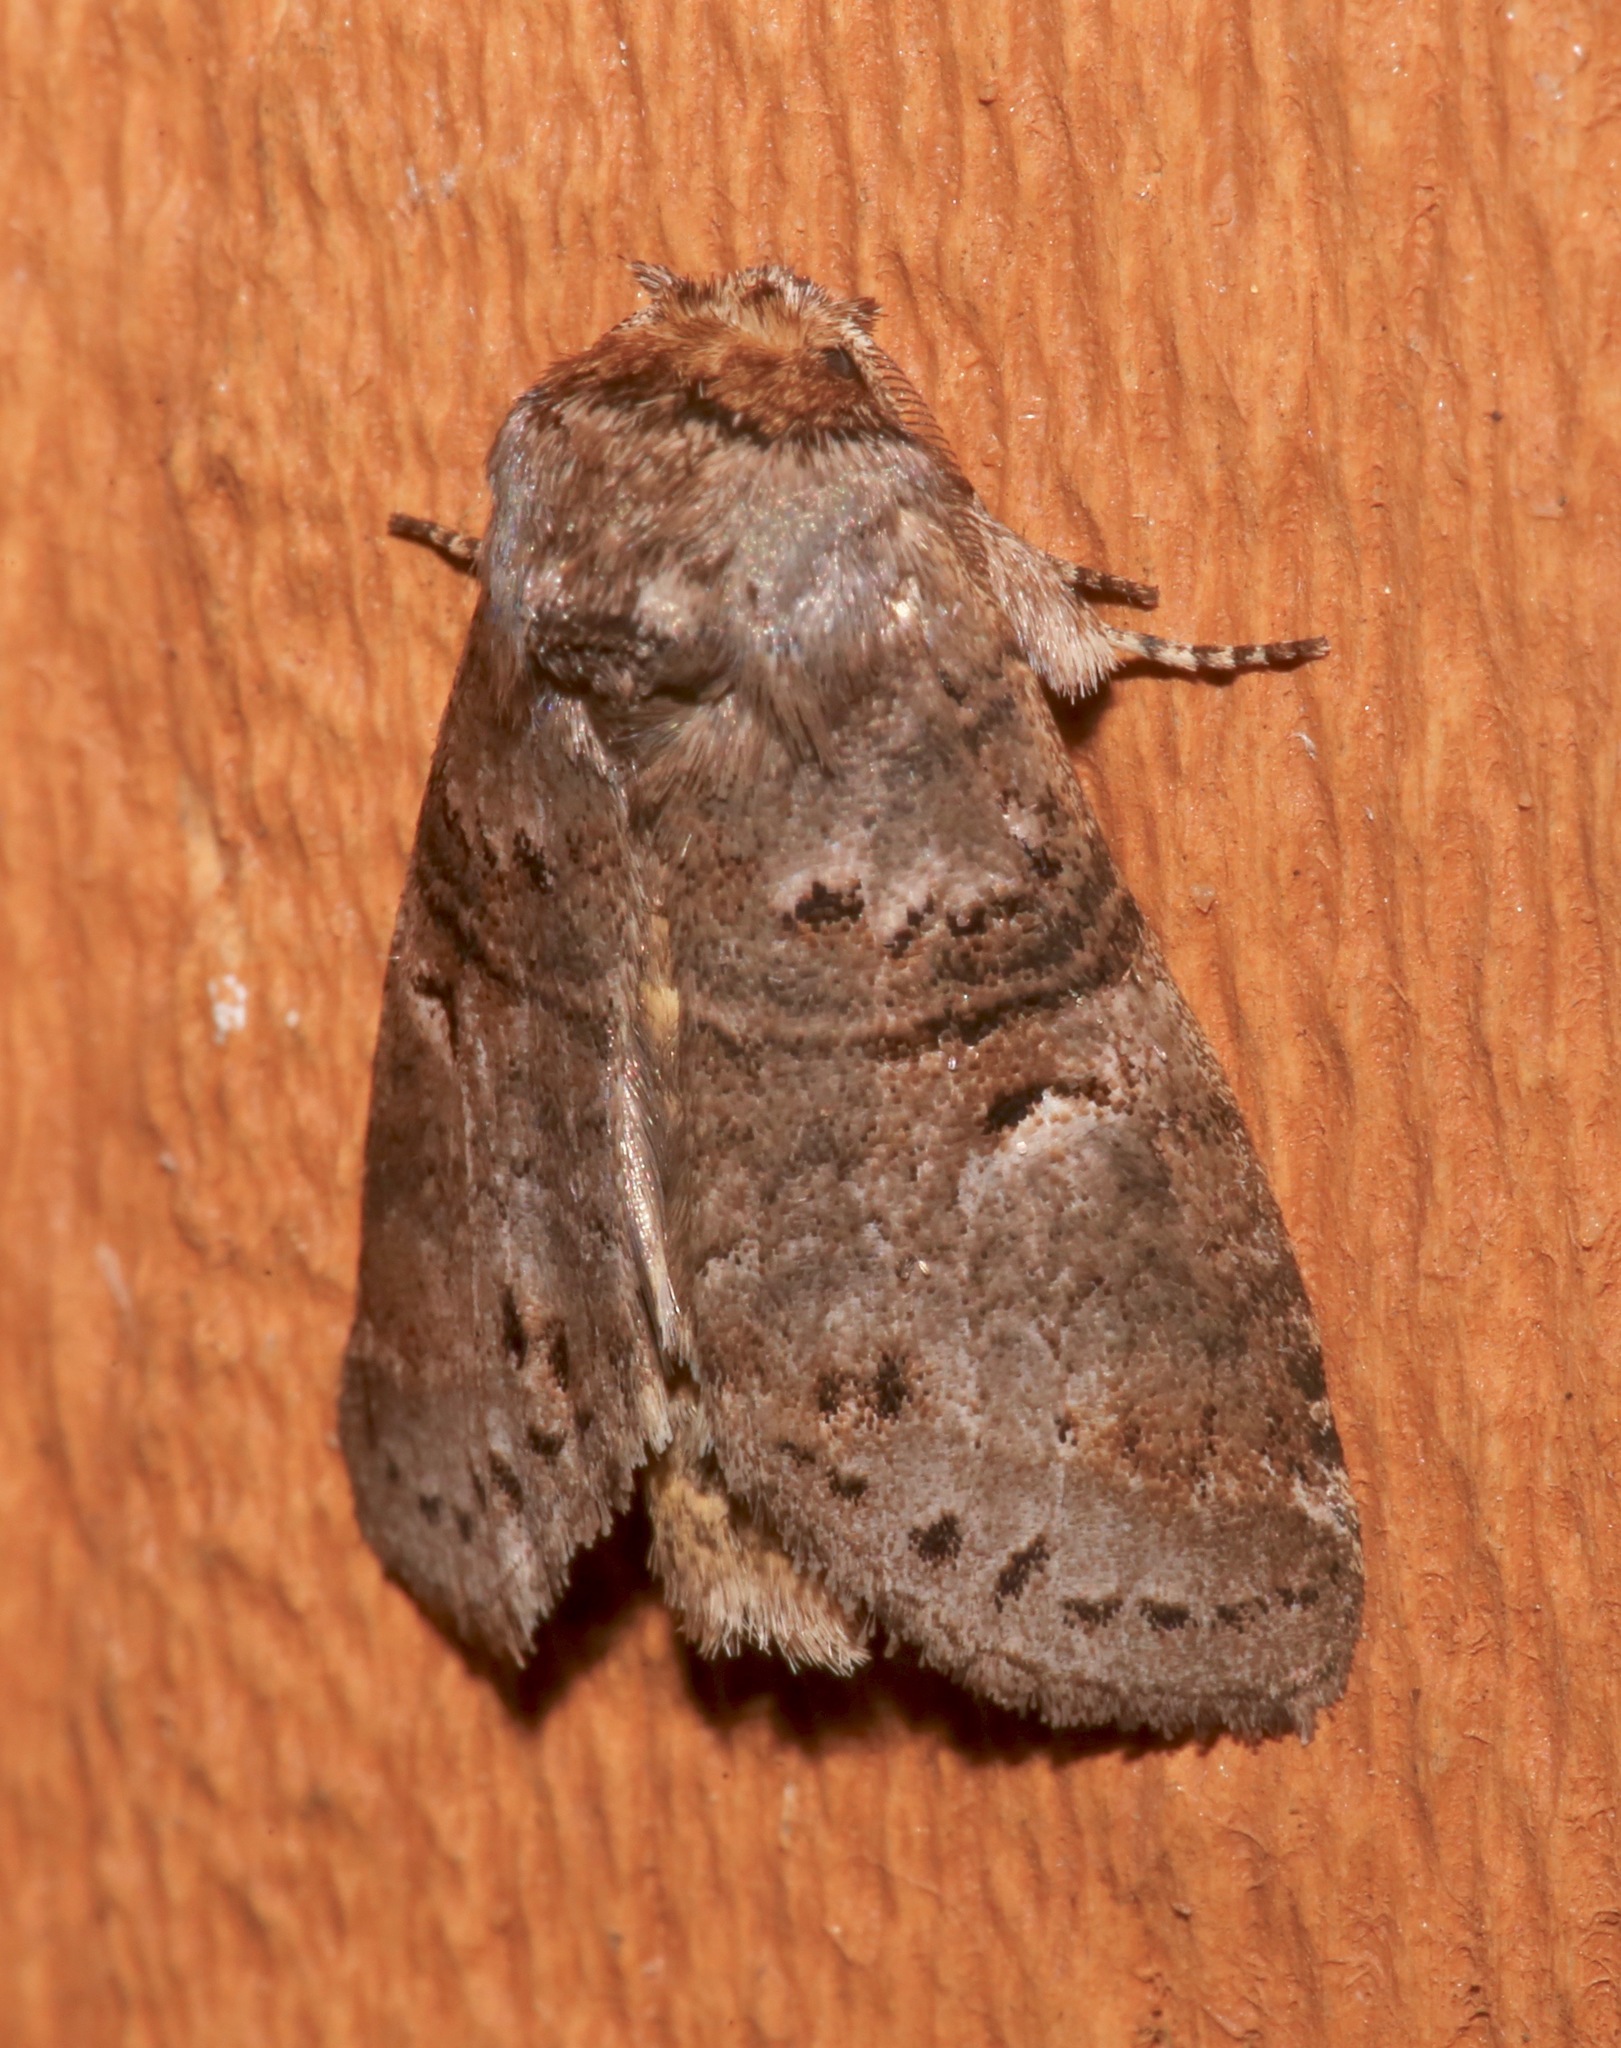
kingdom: Animalia
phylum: Arthropoda
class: Insecta
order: Lepidoptera
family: Notodontidae
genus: Ellida
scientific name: Ellida caniplaga
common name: Linden prominent
